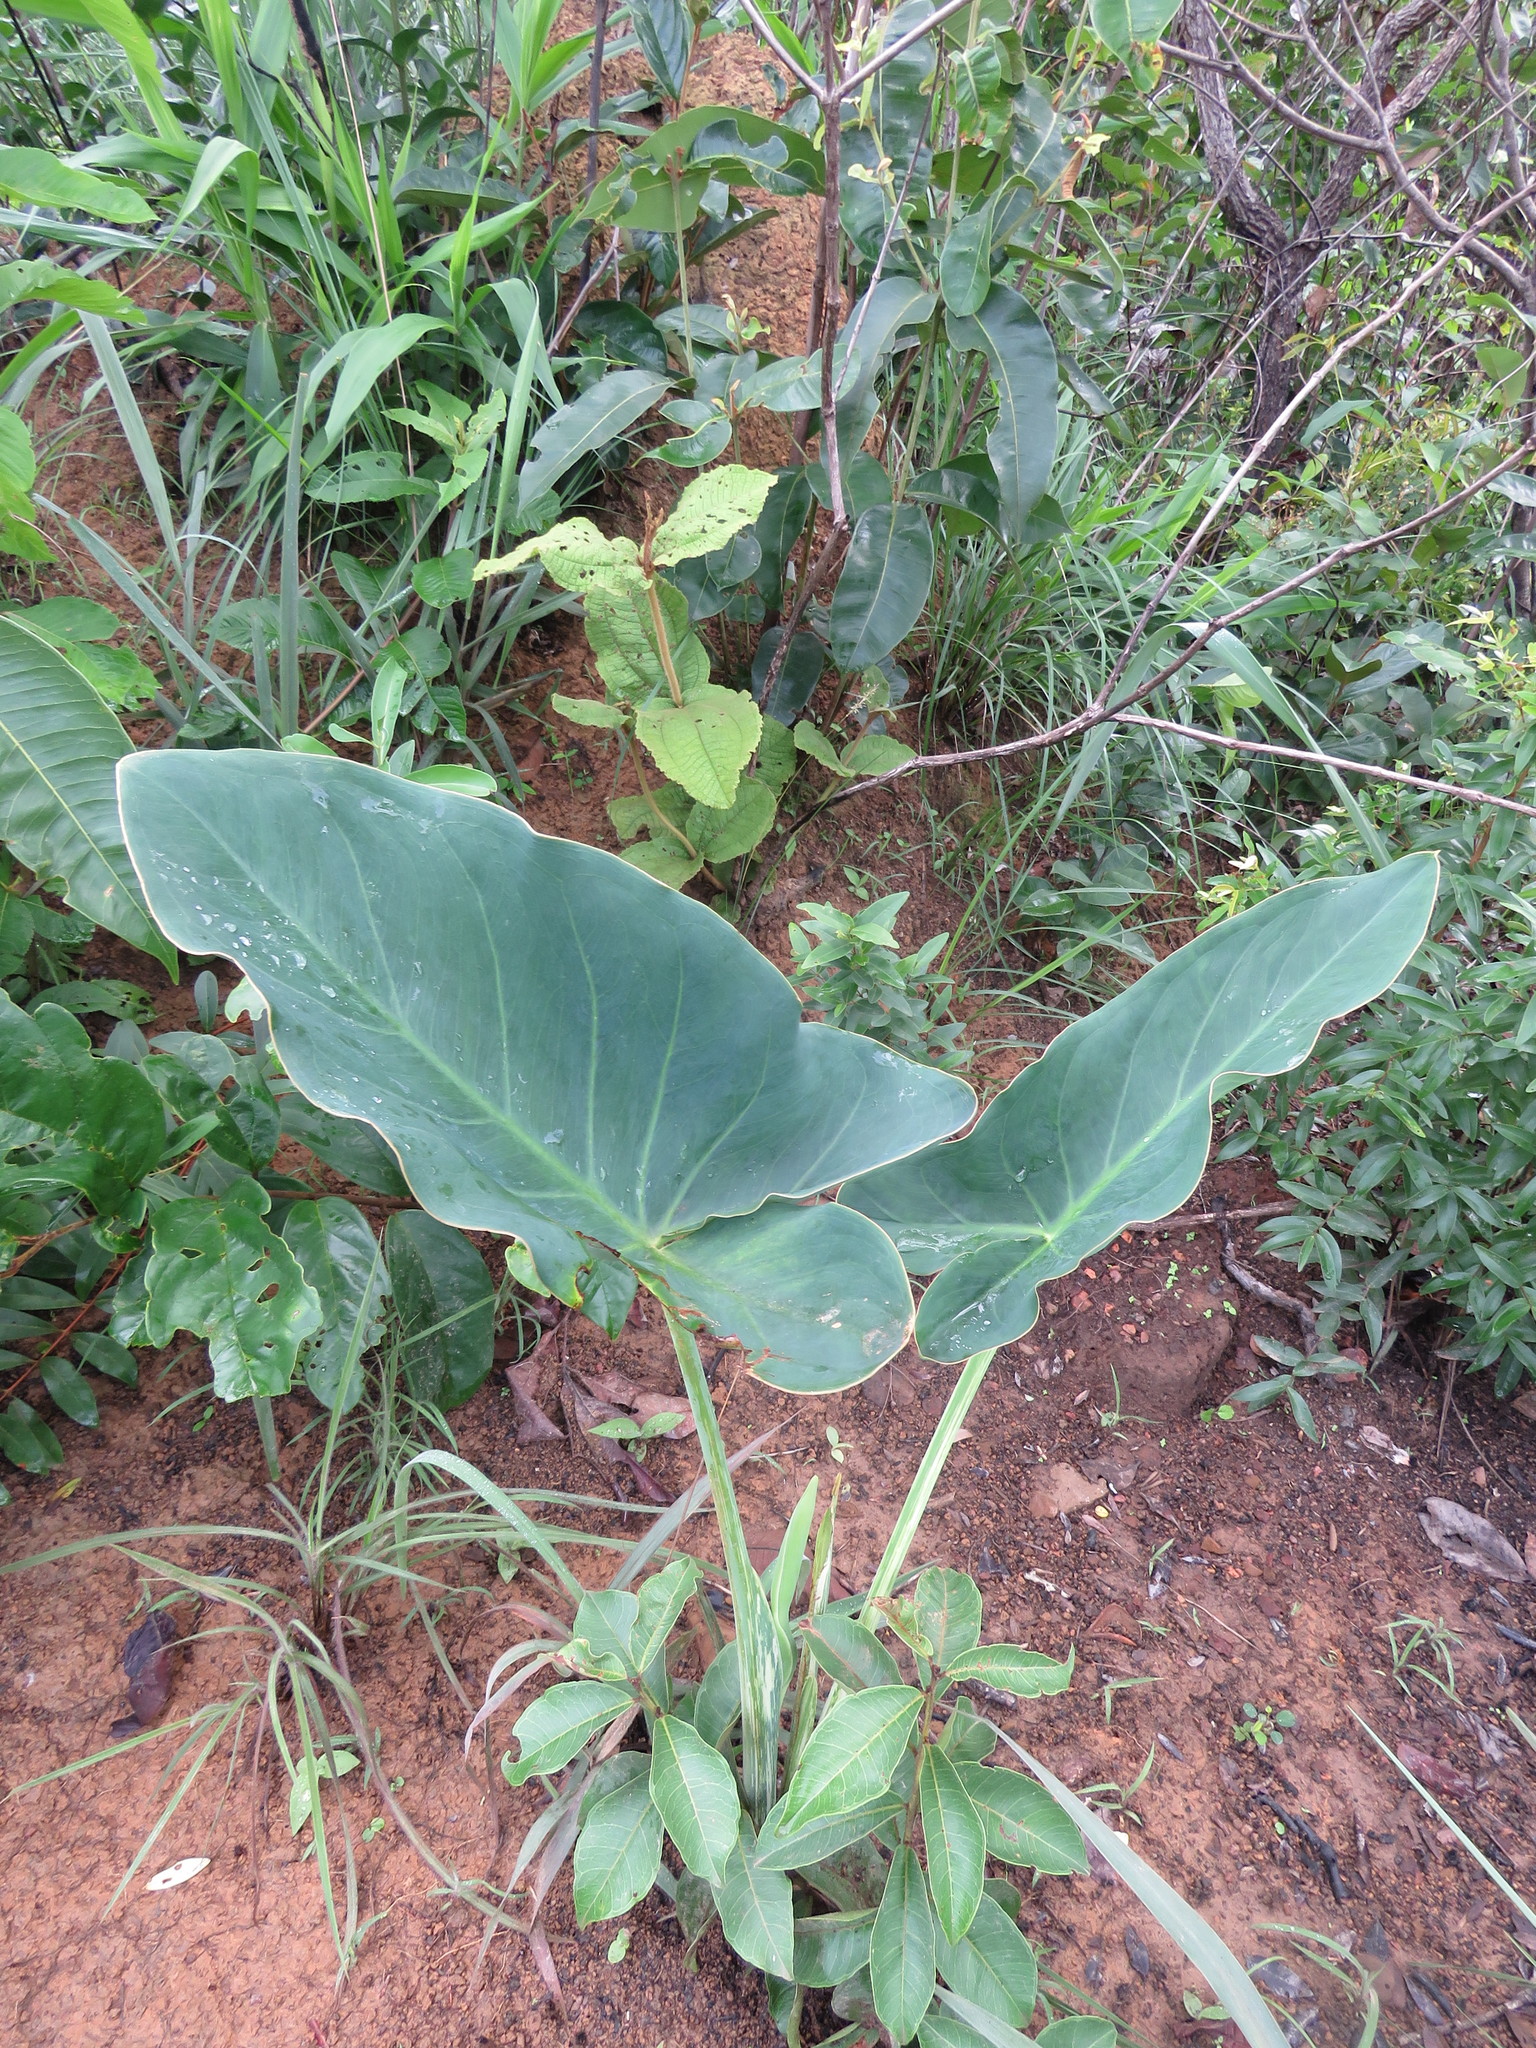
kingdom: Plantae
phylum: Tracheophyta
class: Liliopsida
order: Alismatales
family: Araceae
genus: Synandrospadix
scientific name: Synandrospadix vermitoxicus
